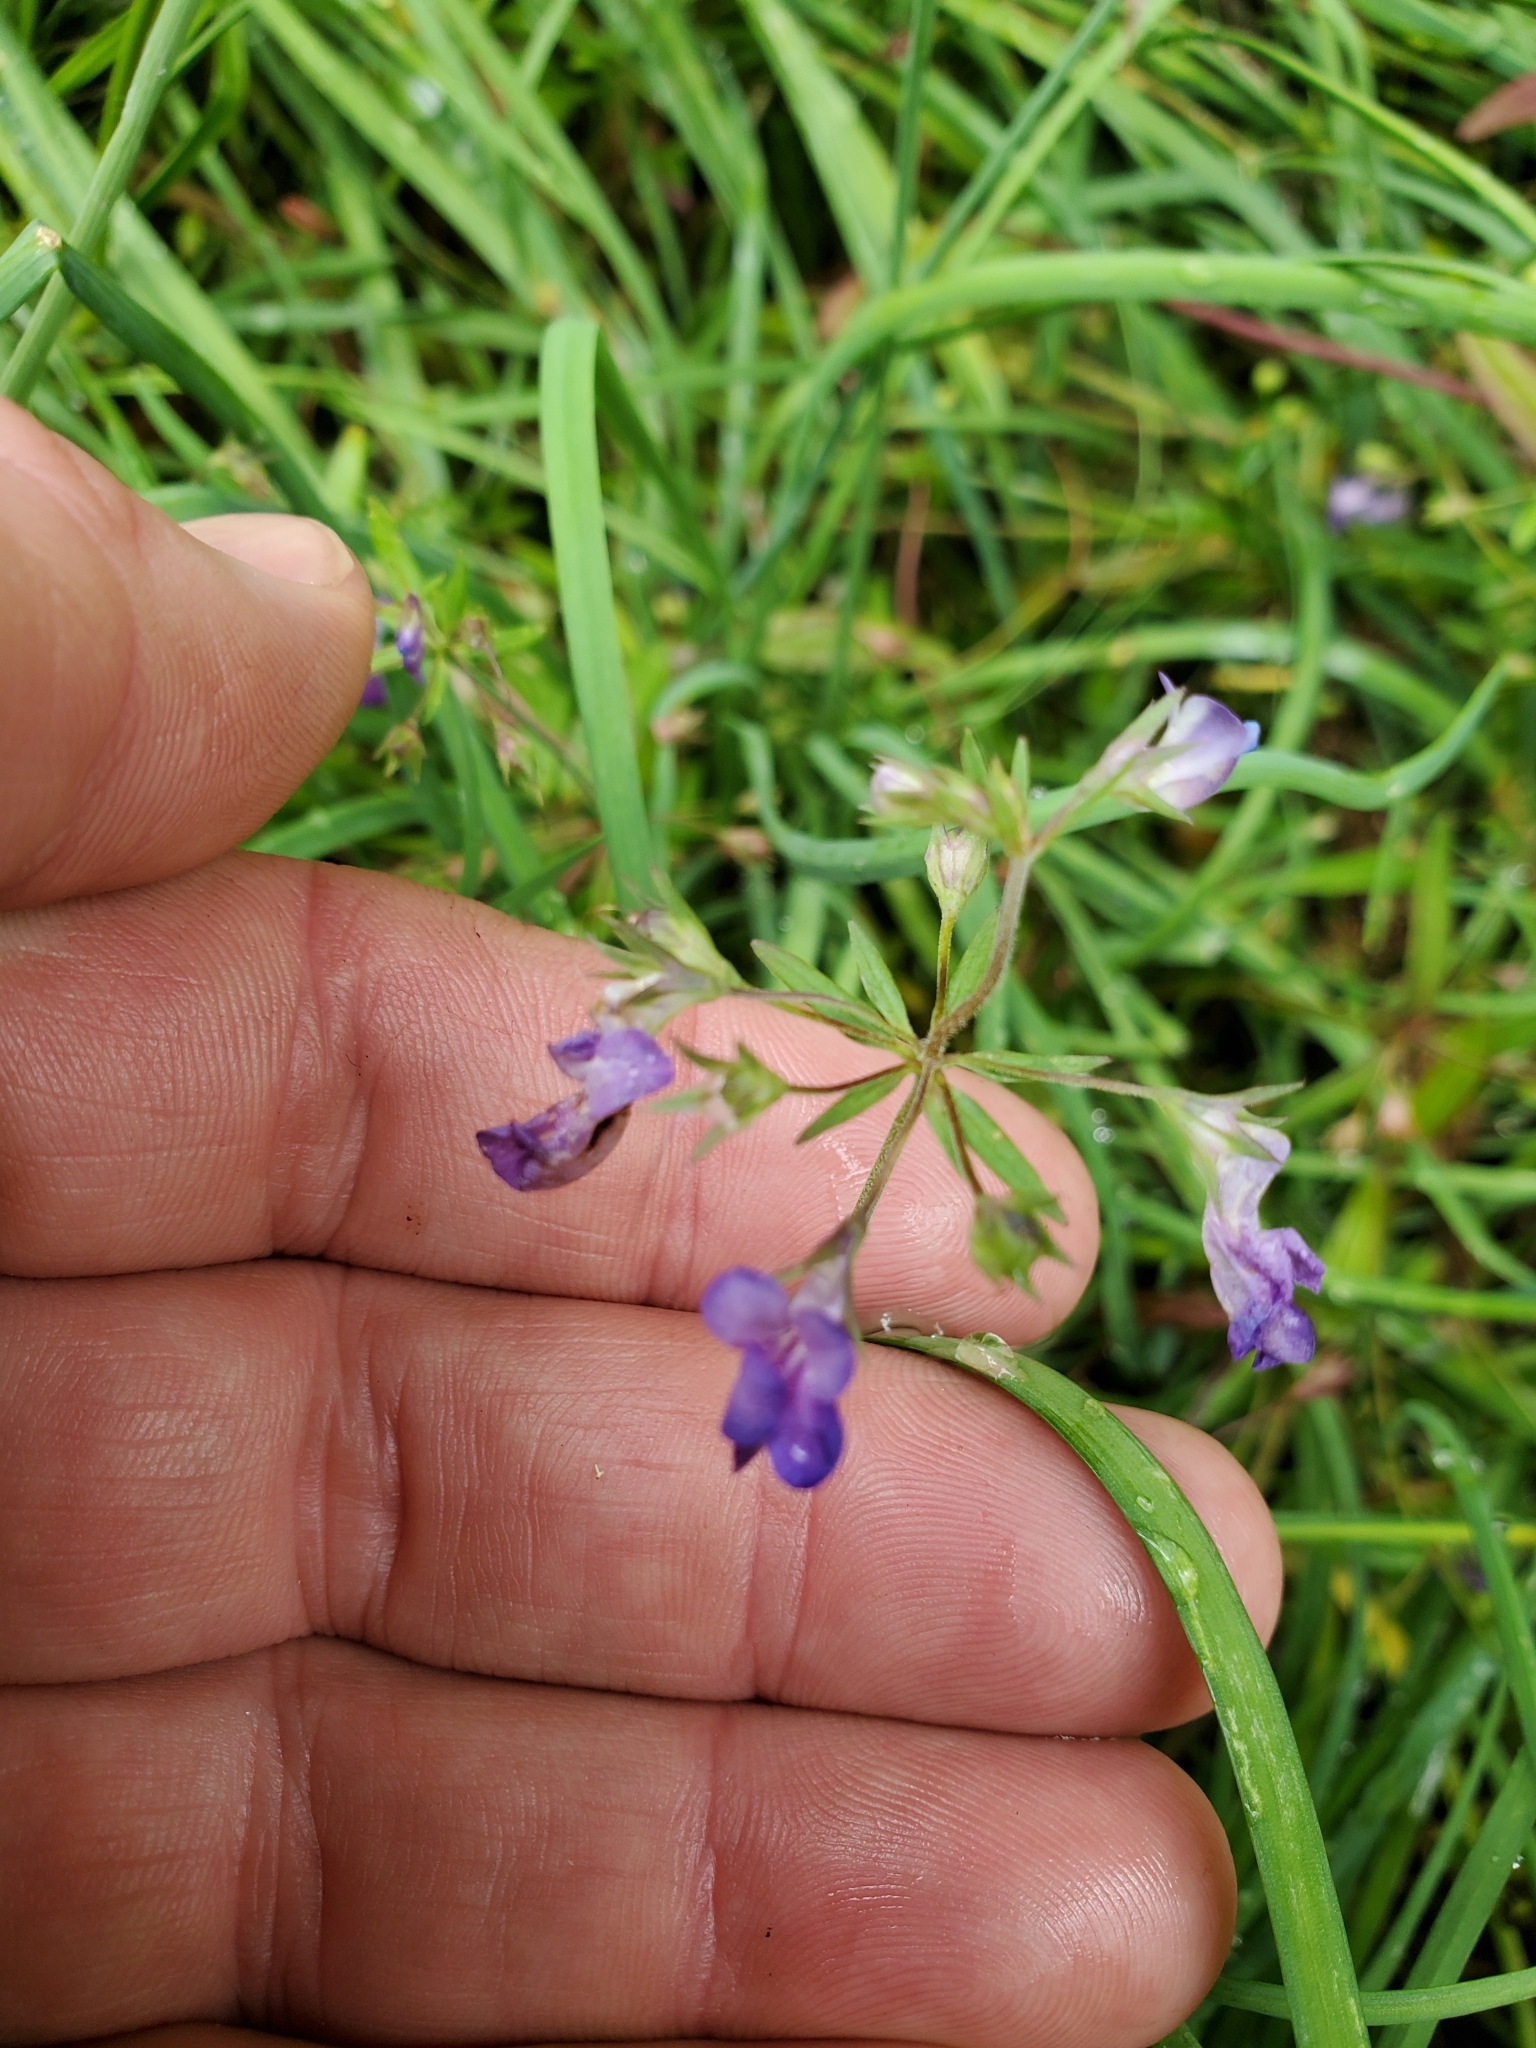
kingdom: Plantae
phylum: Tracheophyta
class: Magnoliopsida
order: Lamiales
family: Plantaginaceae
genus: Collinsia
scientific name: Collinsia grandiflora
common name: Large-flower blue-eyed-mary
